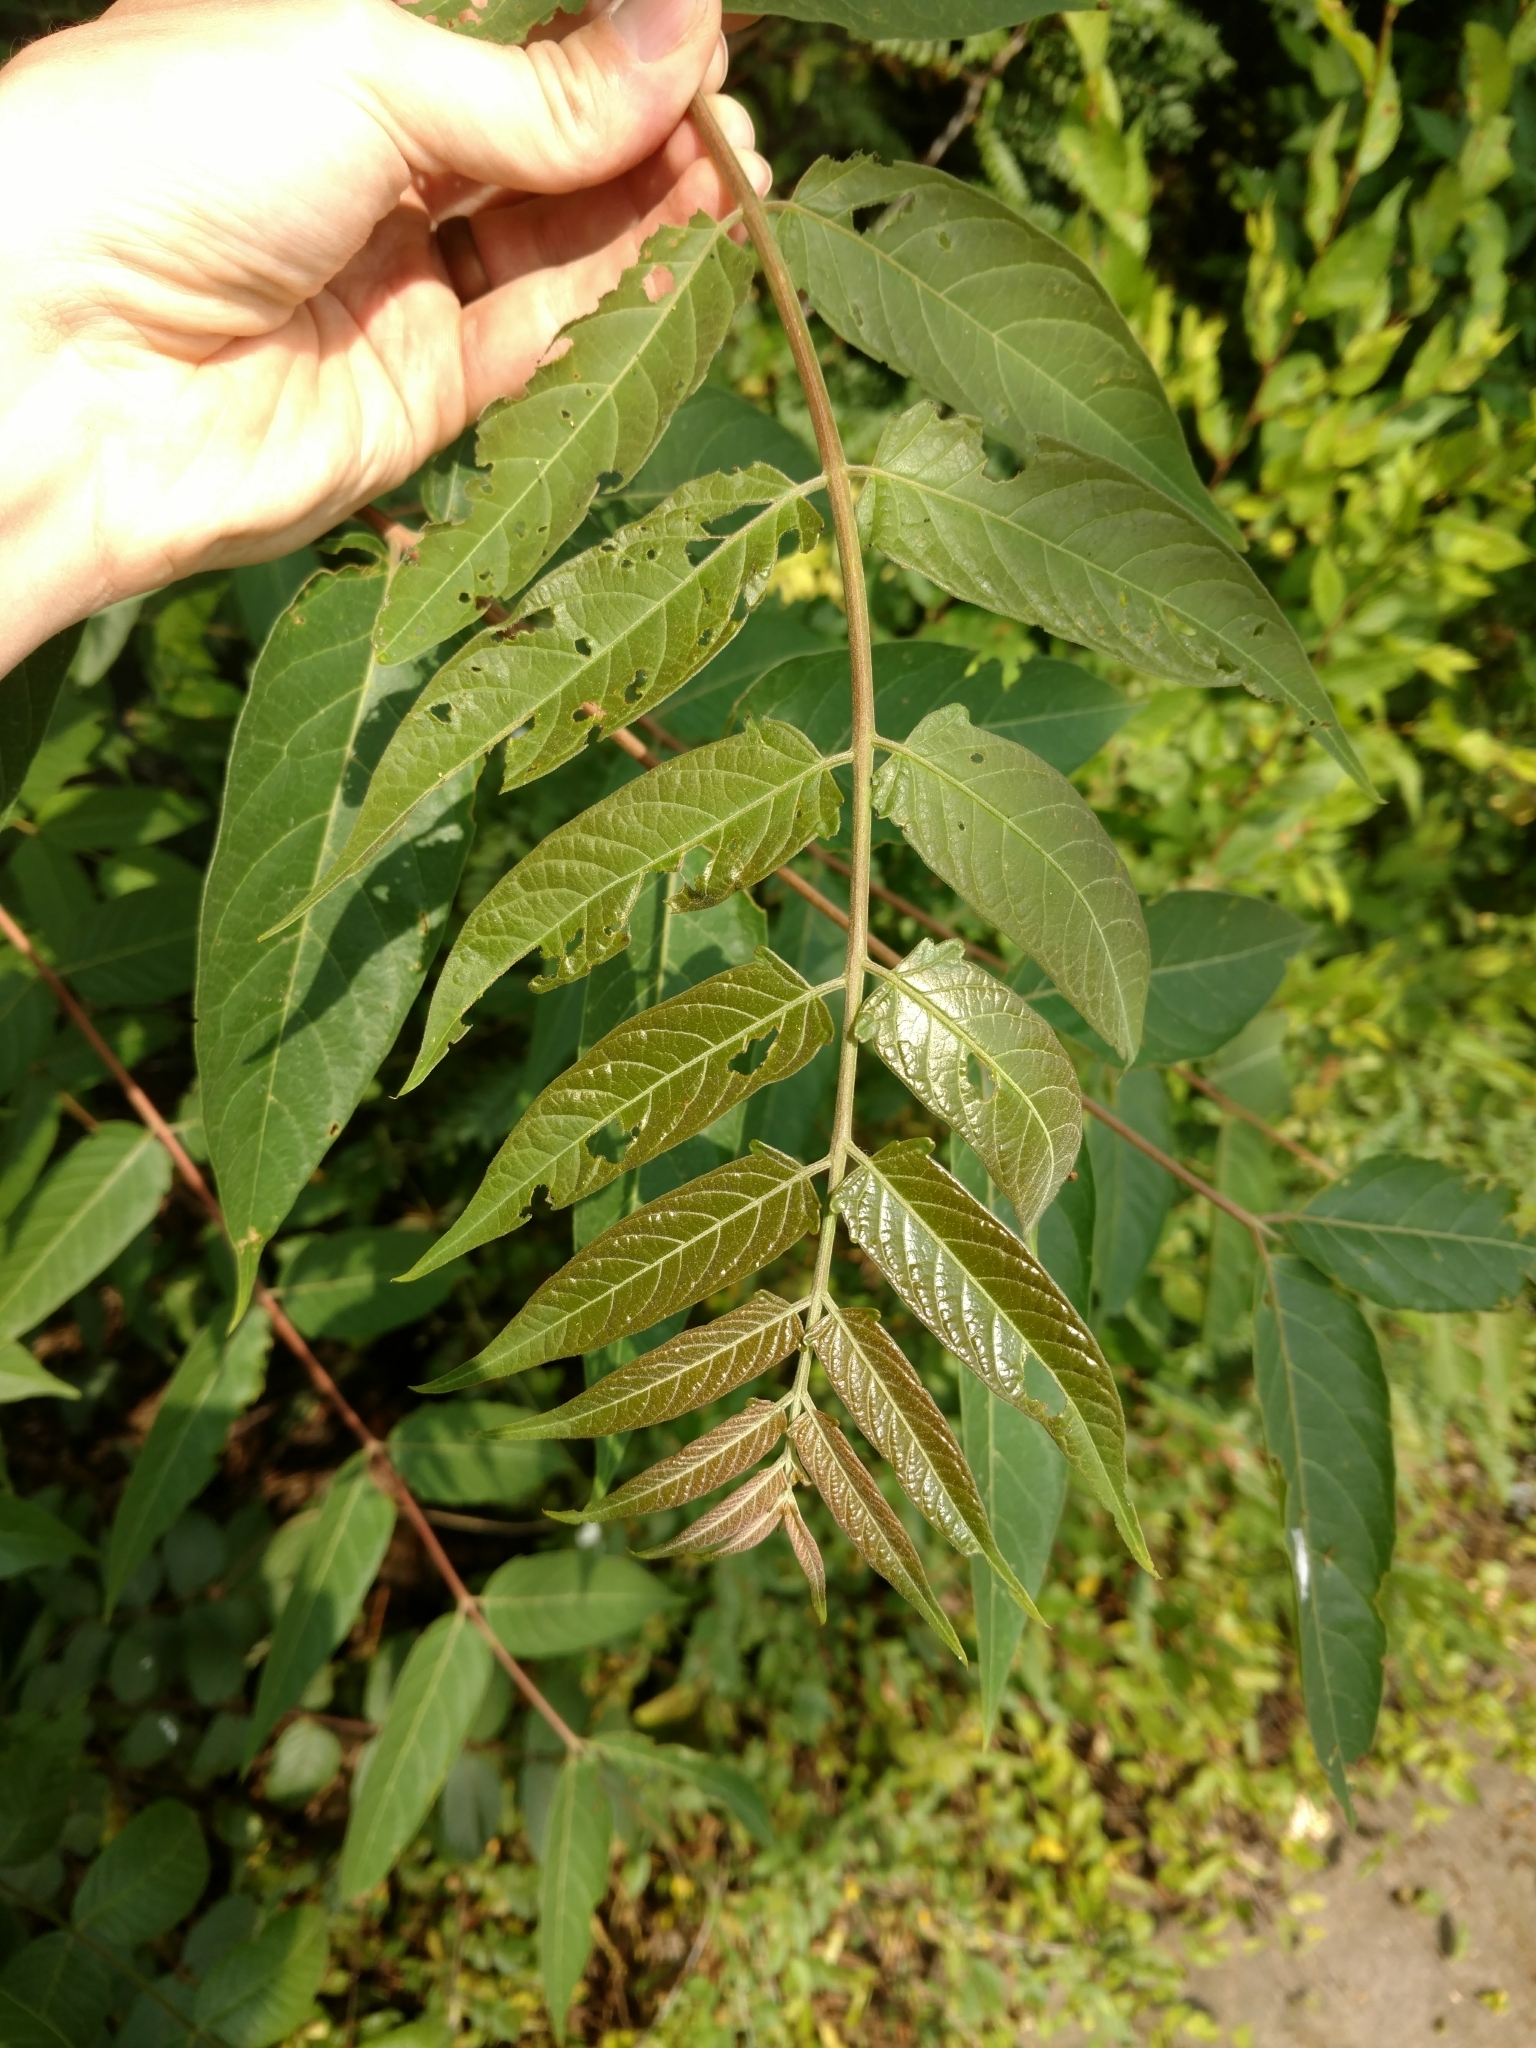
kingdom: Plantae
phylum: Tracheophyta
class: Magnoliopsida
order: Sapindales
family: Simaroubaceae
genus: Ailanthus
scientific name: Ailanthus altissima
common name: Tree-of-heaven
